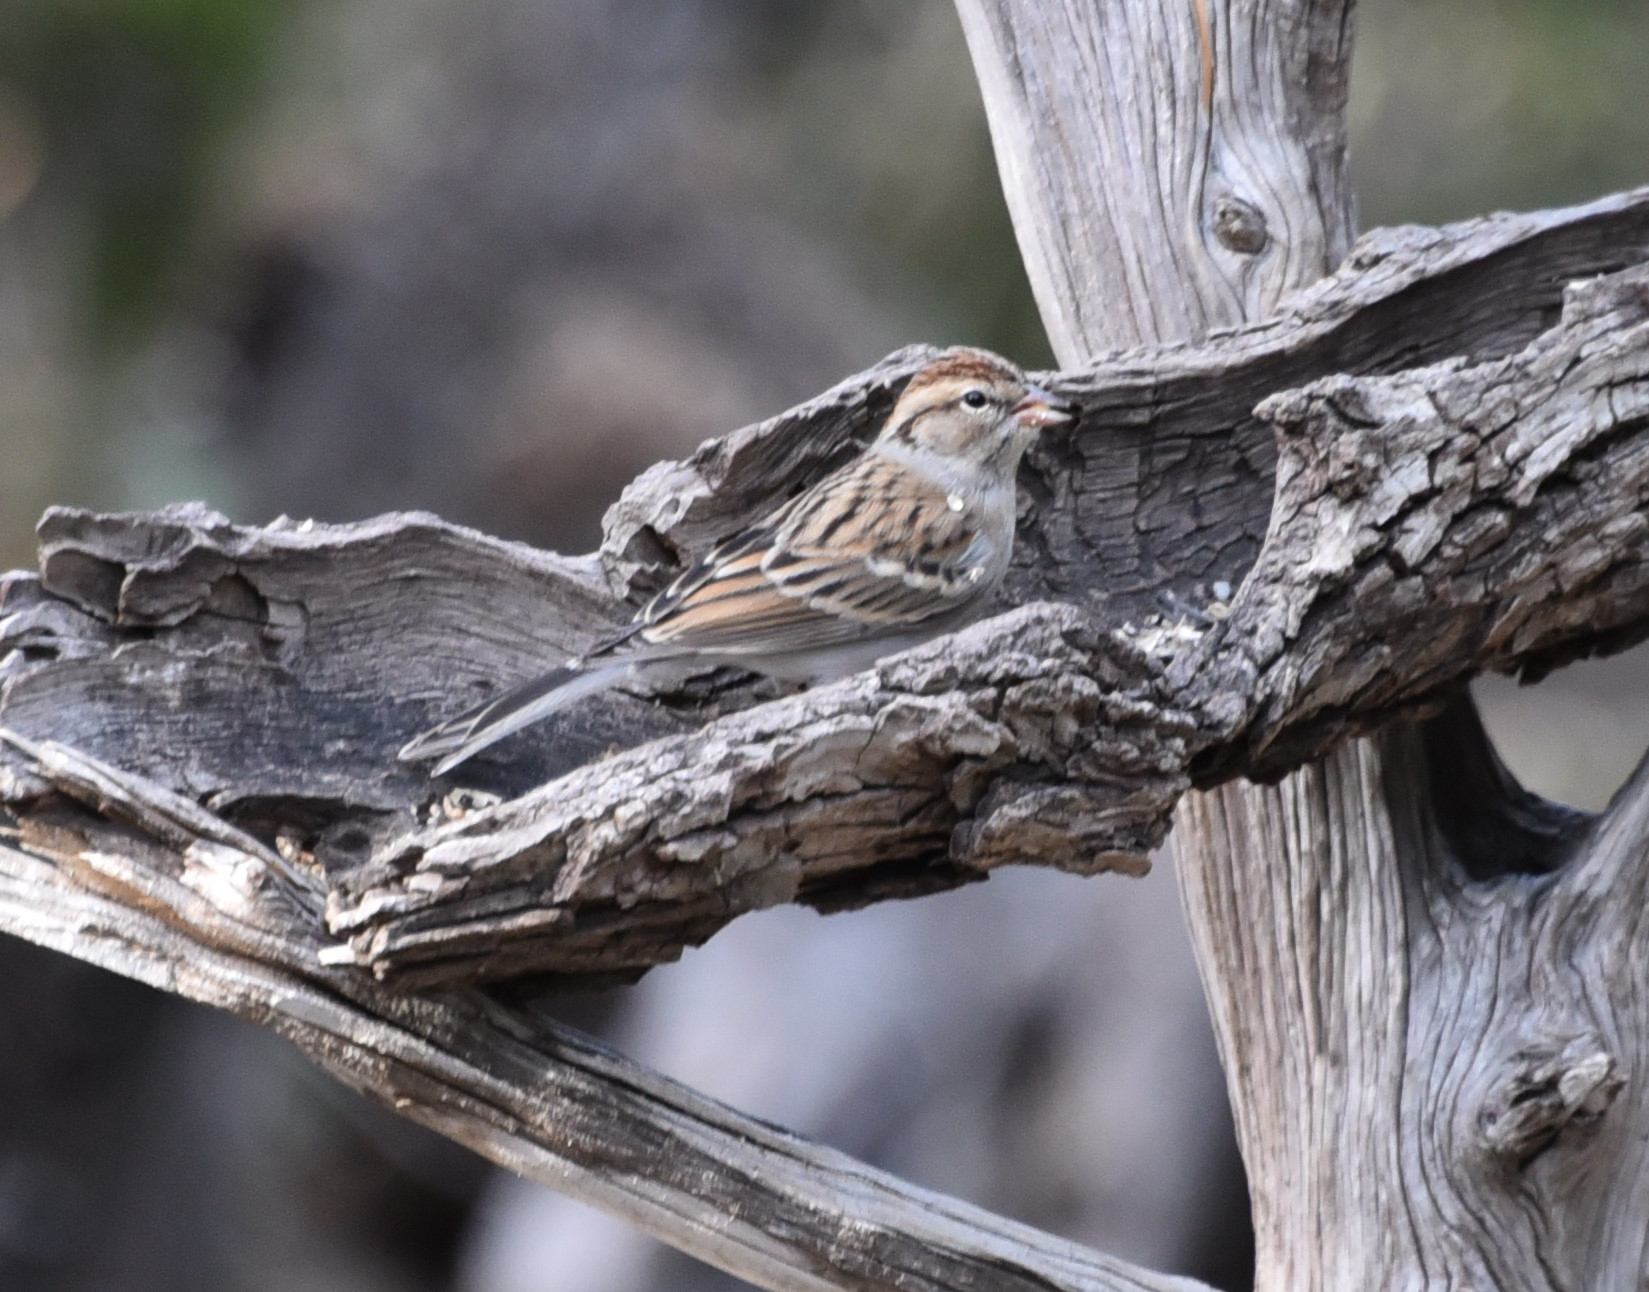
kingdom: Animalia
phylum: Chordata
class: Aves
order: Passeriformes
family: Passerellidae
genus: Spizella
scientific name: Spizella passerina
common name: Chipping sparrow
